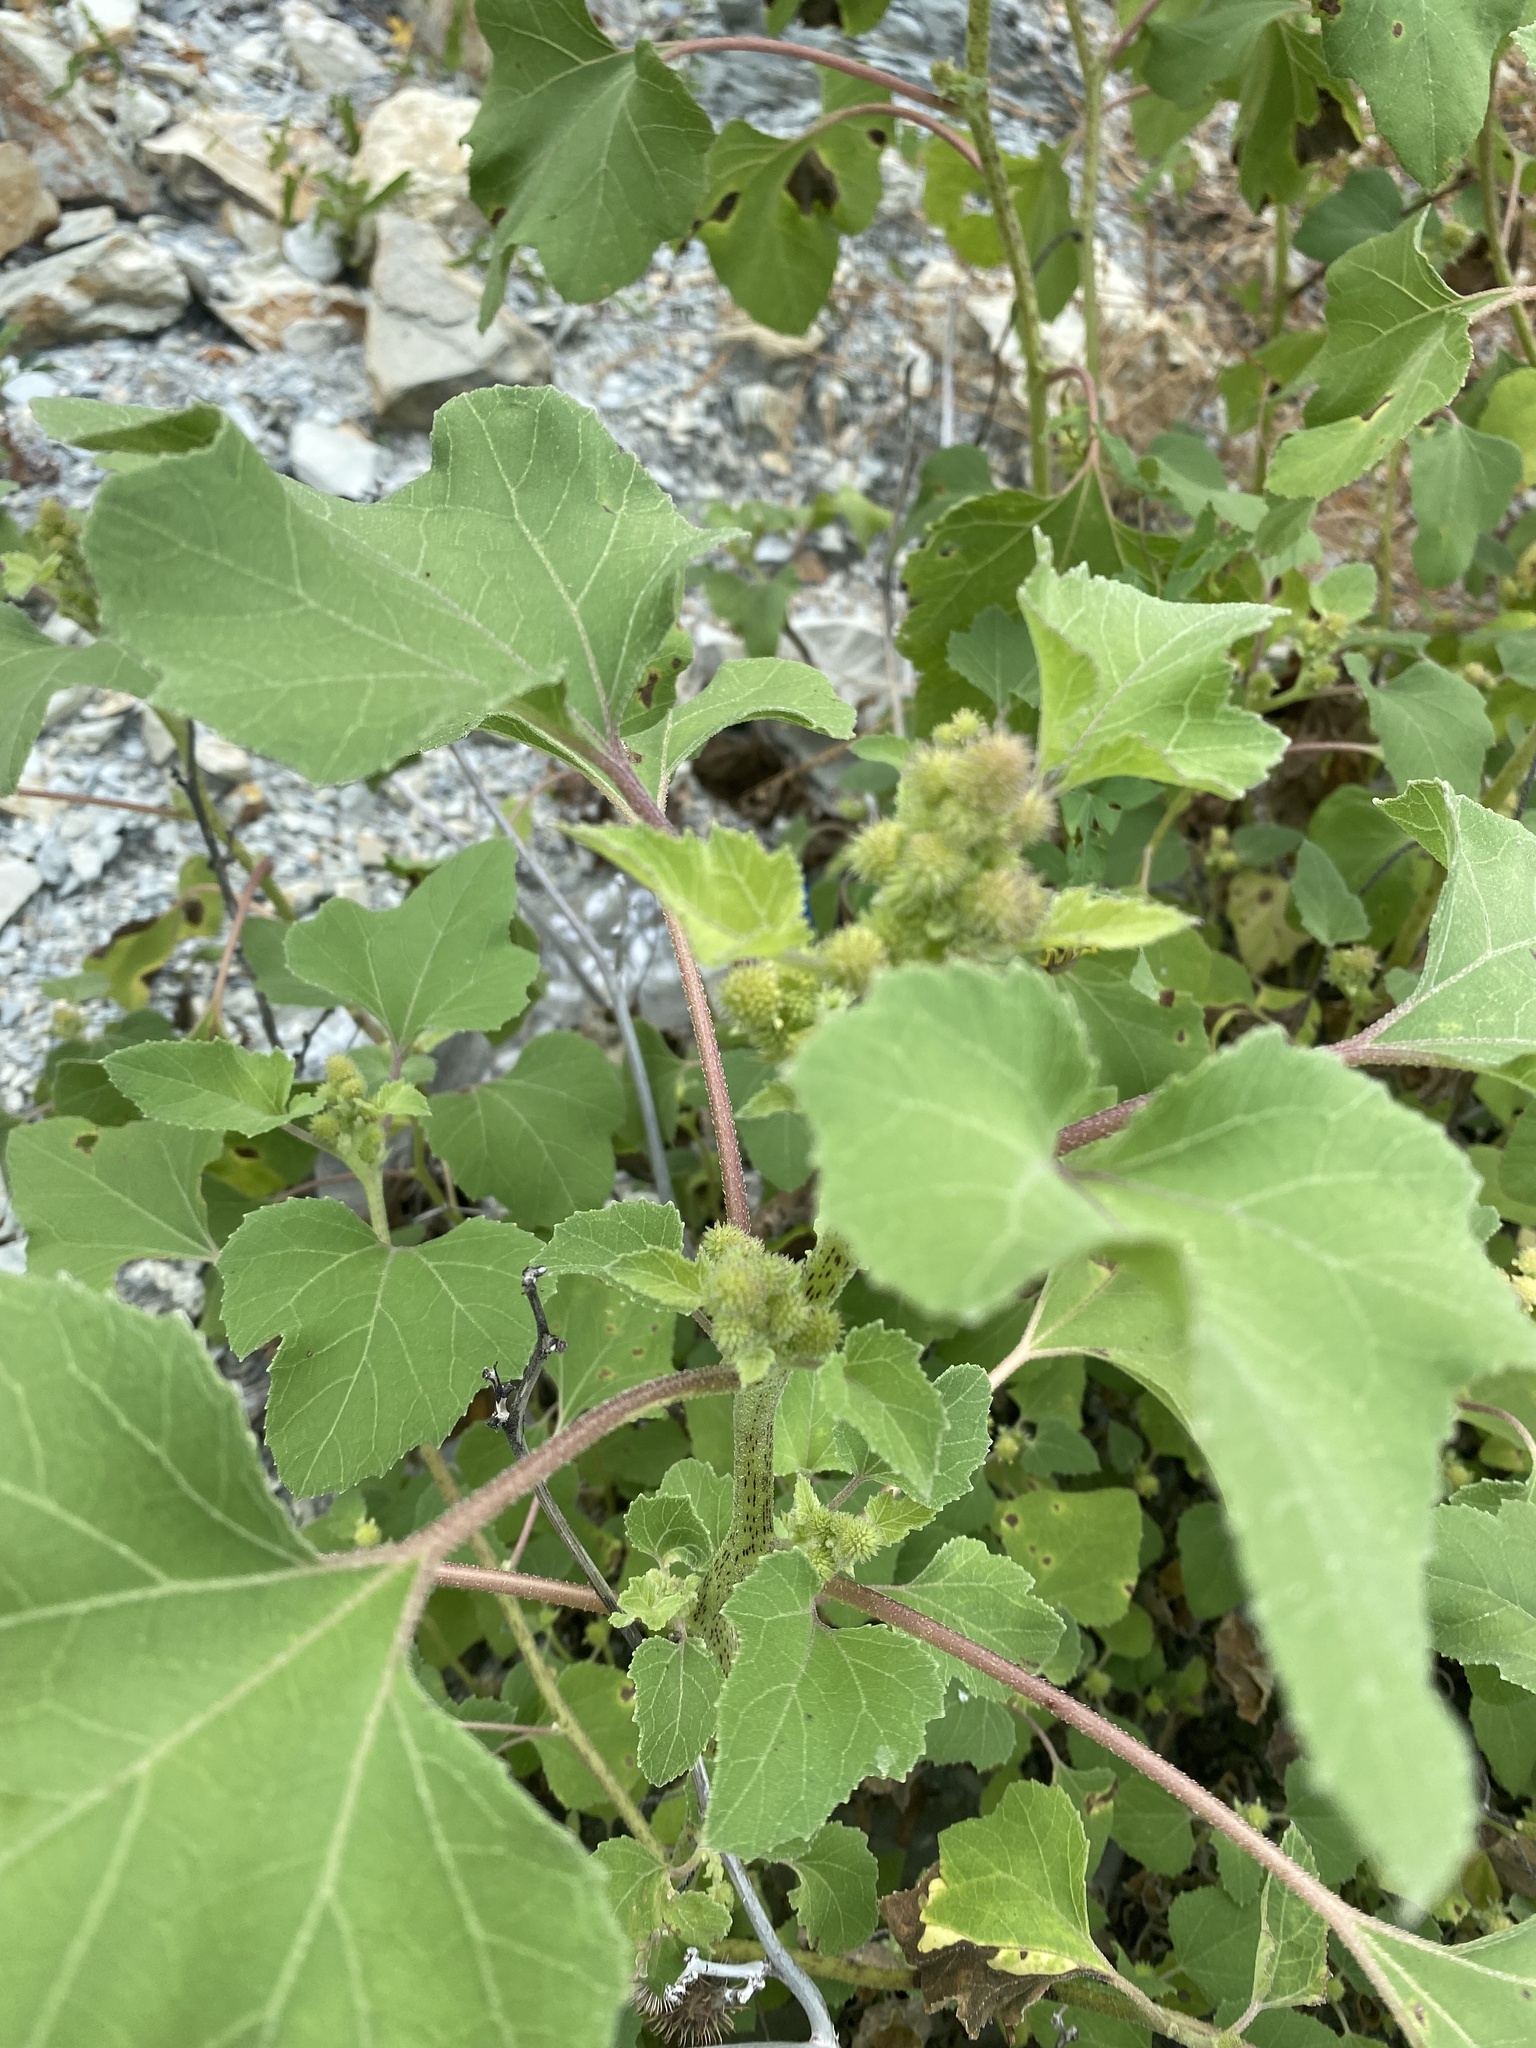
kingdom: Plantae
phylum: Tracheophyta
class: Magnoliopsida
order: Asterales
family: Asteraceae
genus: Xanthium
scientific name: Xanthium orientale
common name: Californian burr
